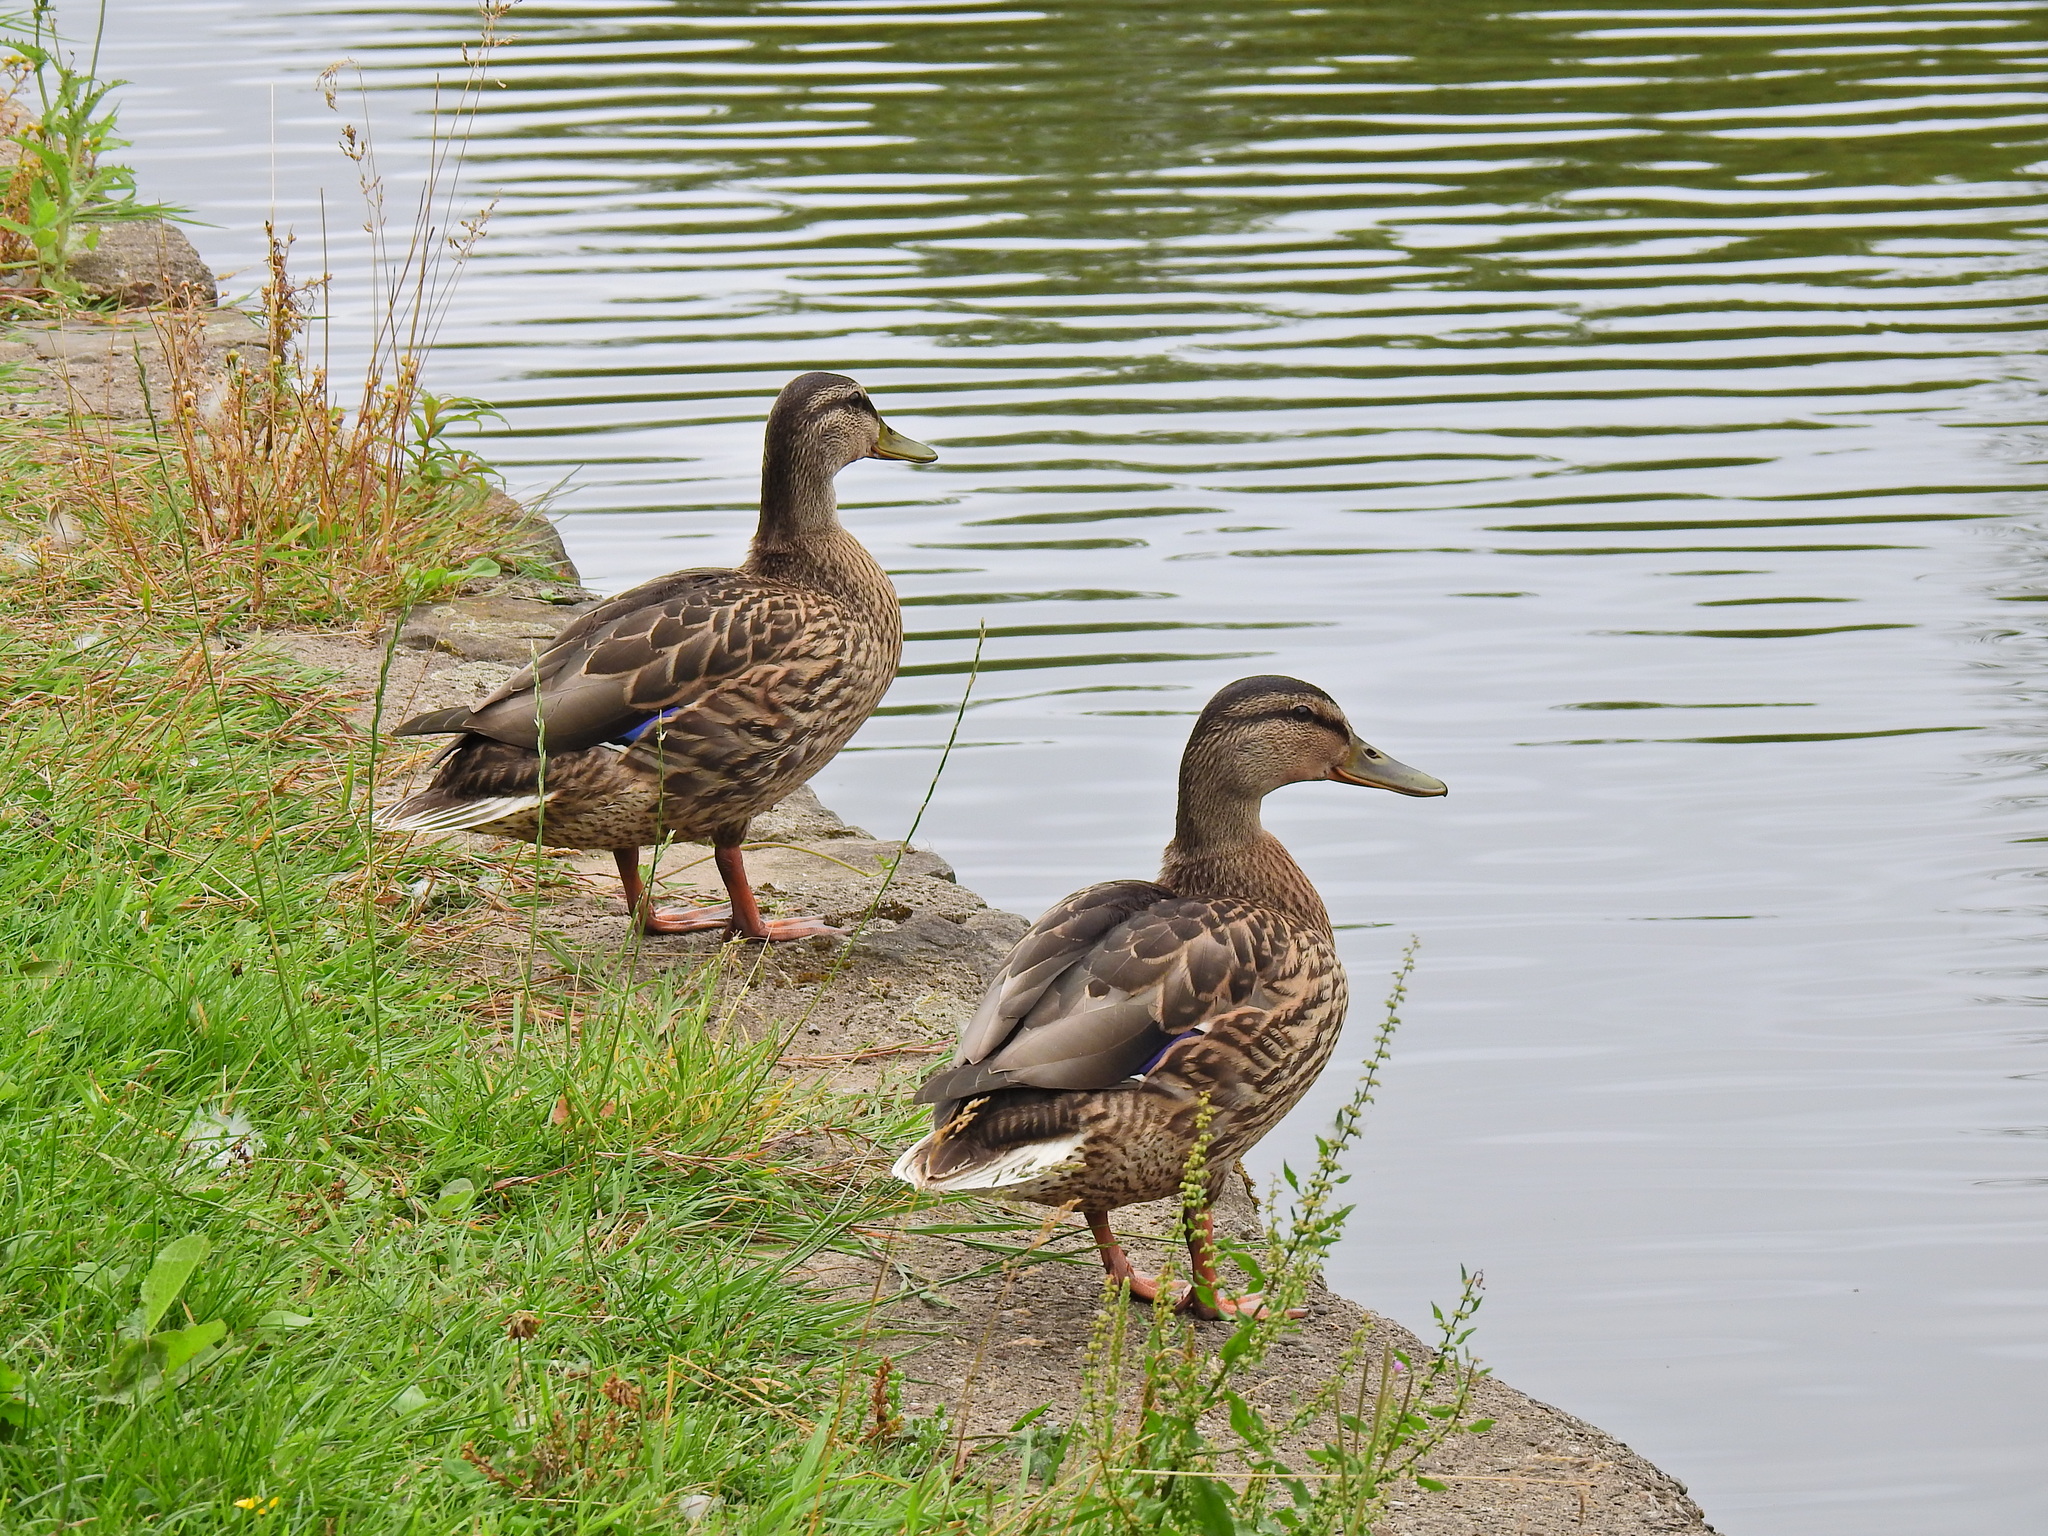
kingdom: Animalia
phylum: Chordata
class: Aves
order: Anseriformes
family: Anatidae
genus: Anas
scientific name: Anas platyrhynchos
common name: Mallard
